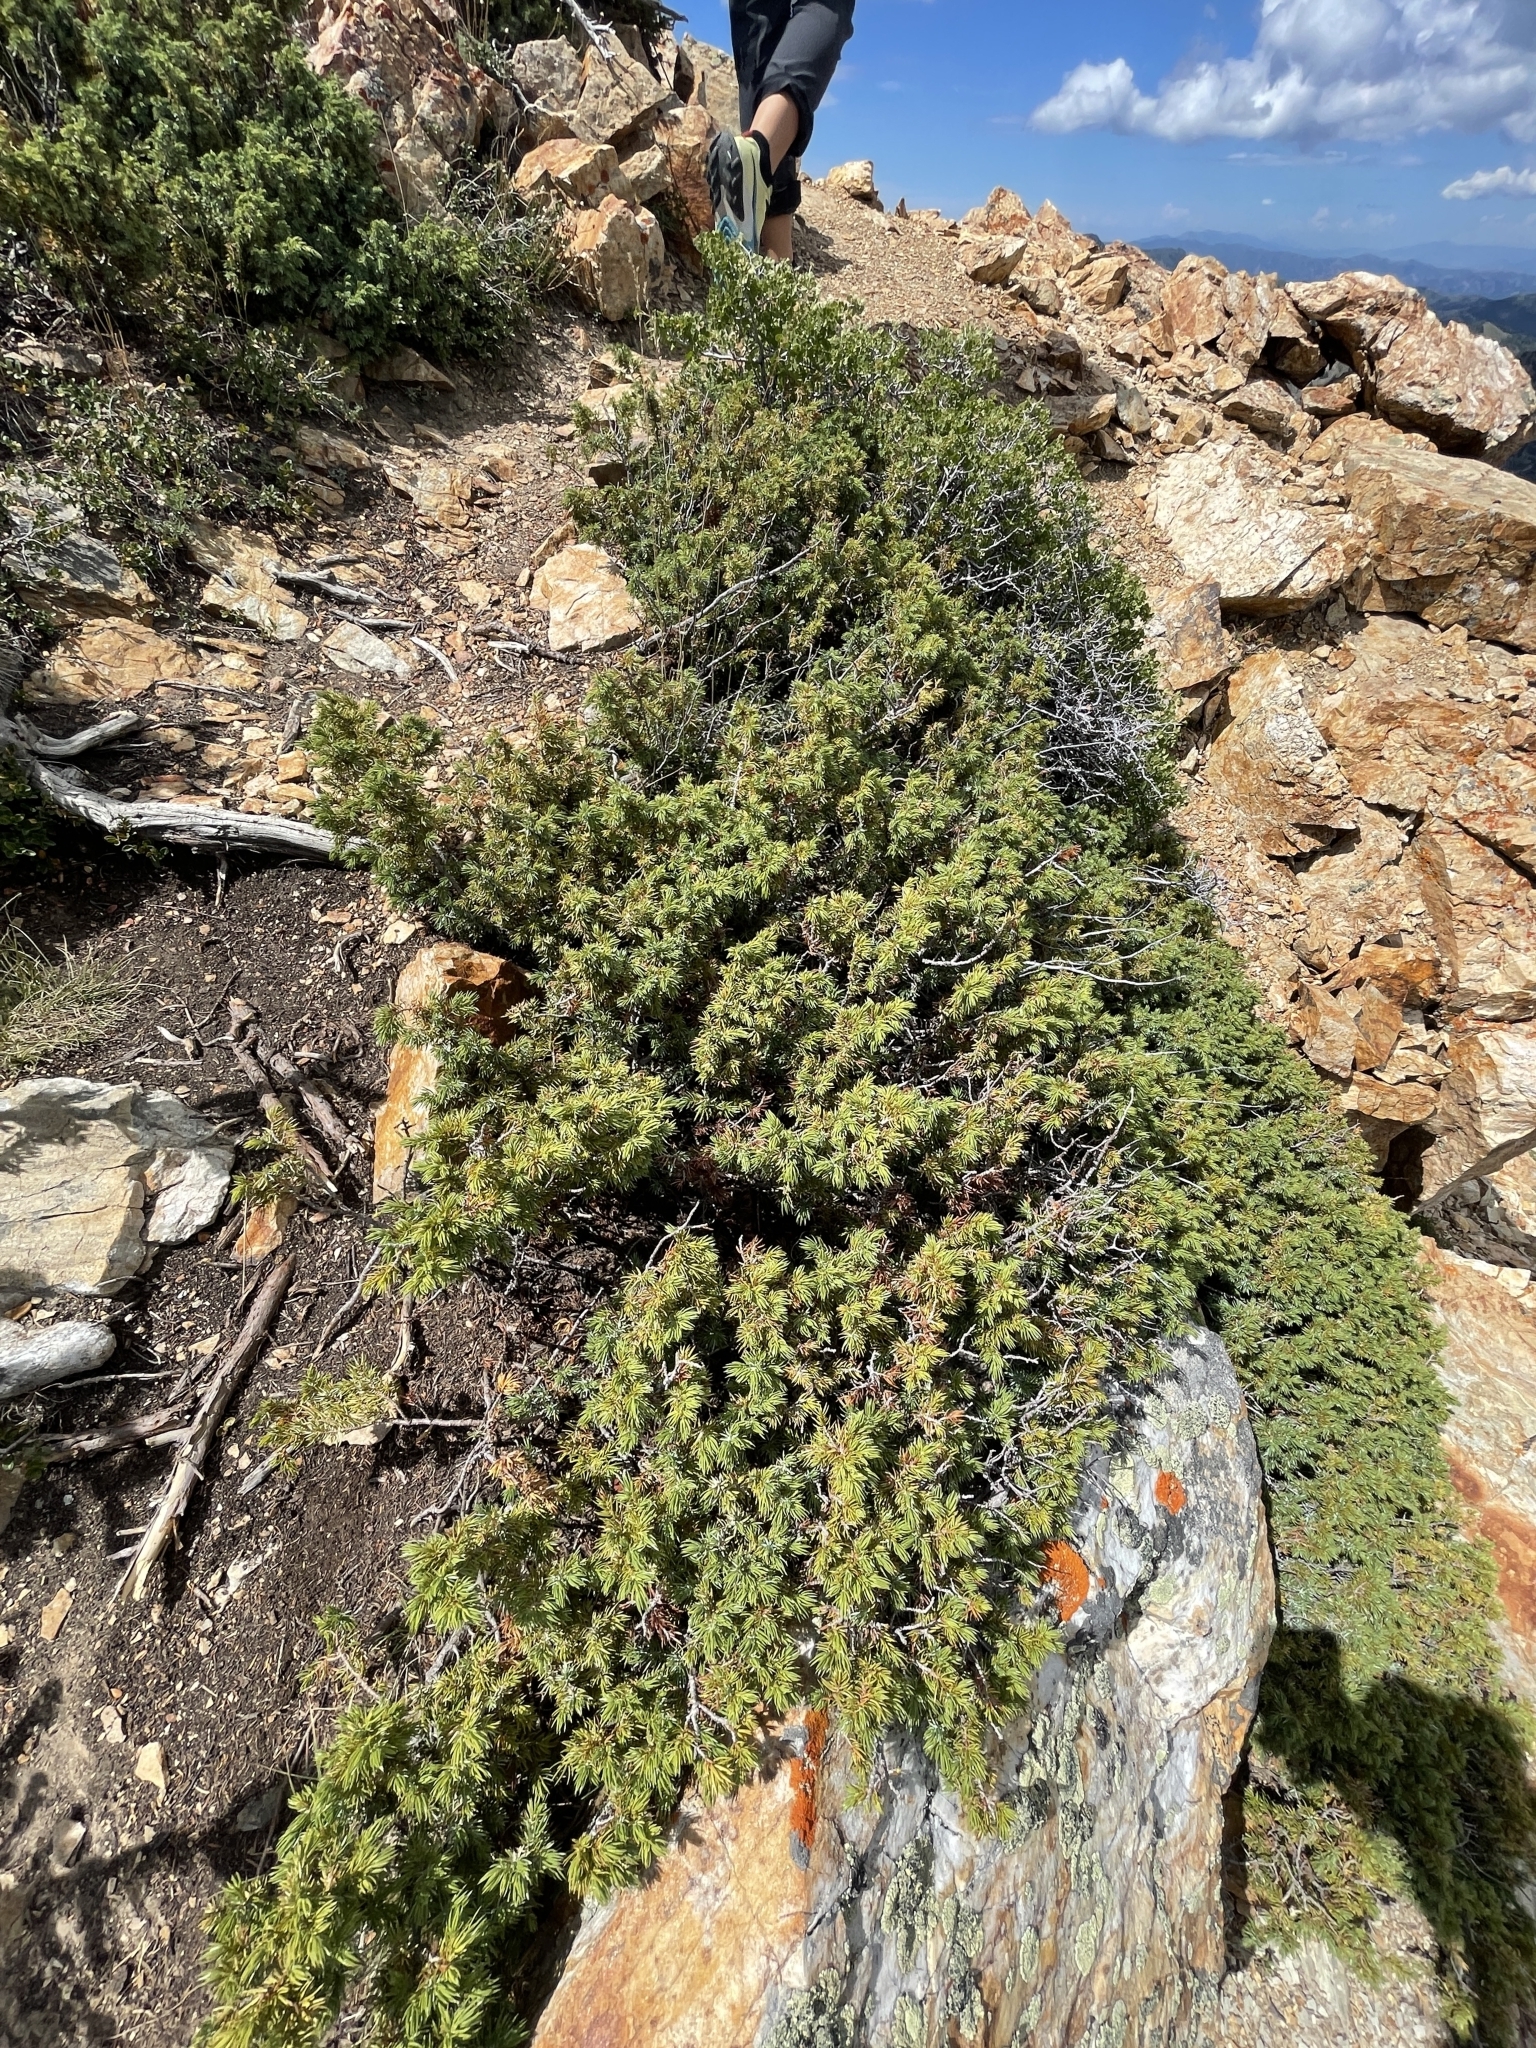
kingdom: Plantae
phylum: Tracheophyta
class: Pinopsida
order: Pinales
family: Cupressaceae
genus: Juniperus
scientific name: Juniperus communis
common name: Common juniper
